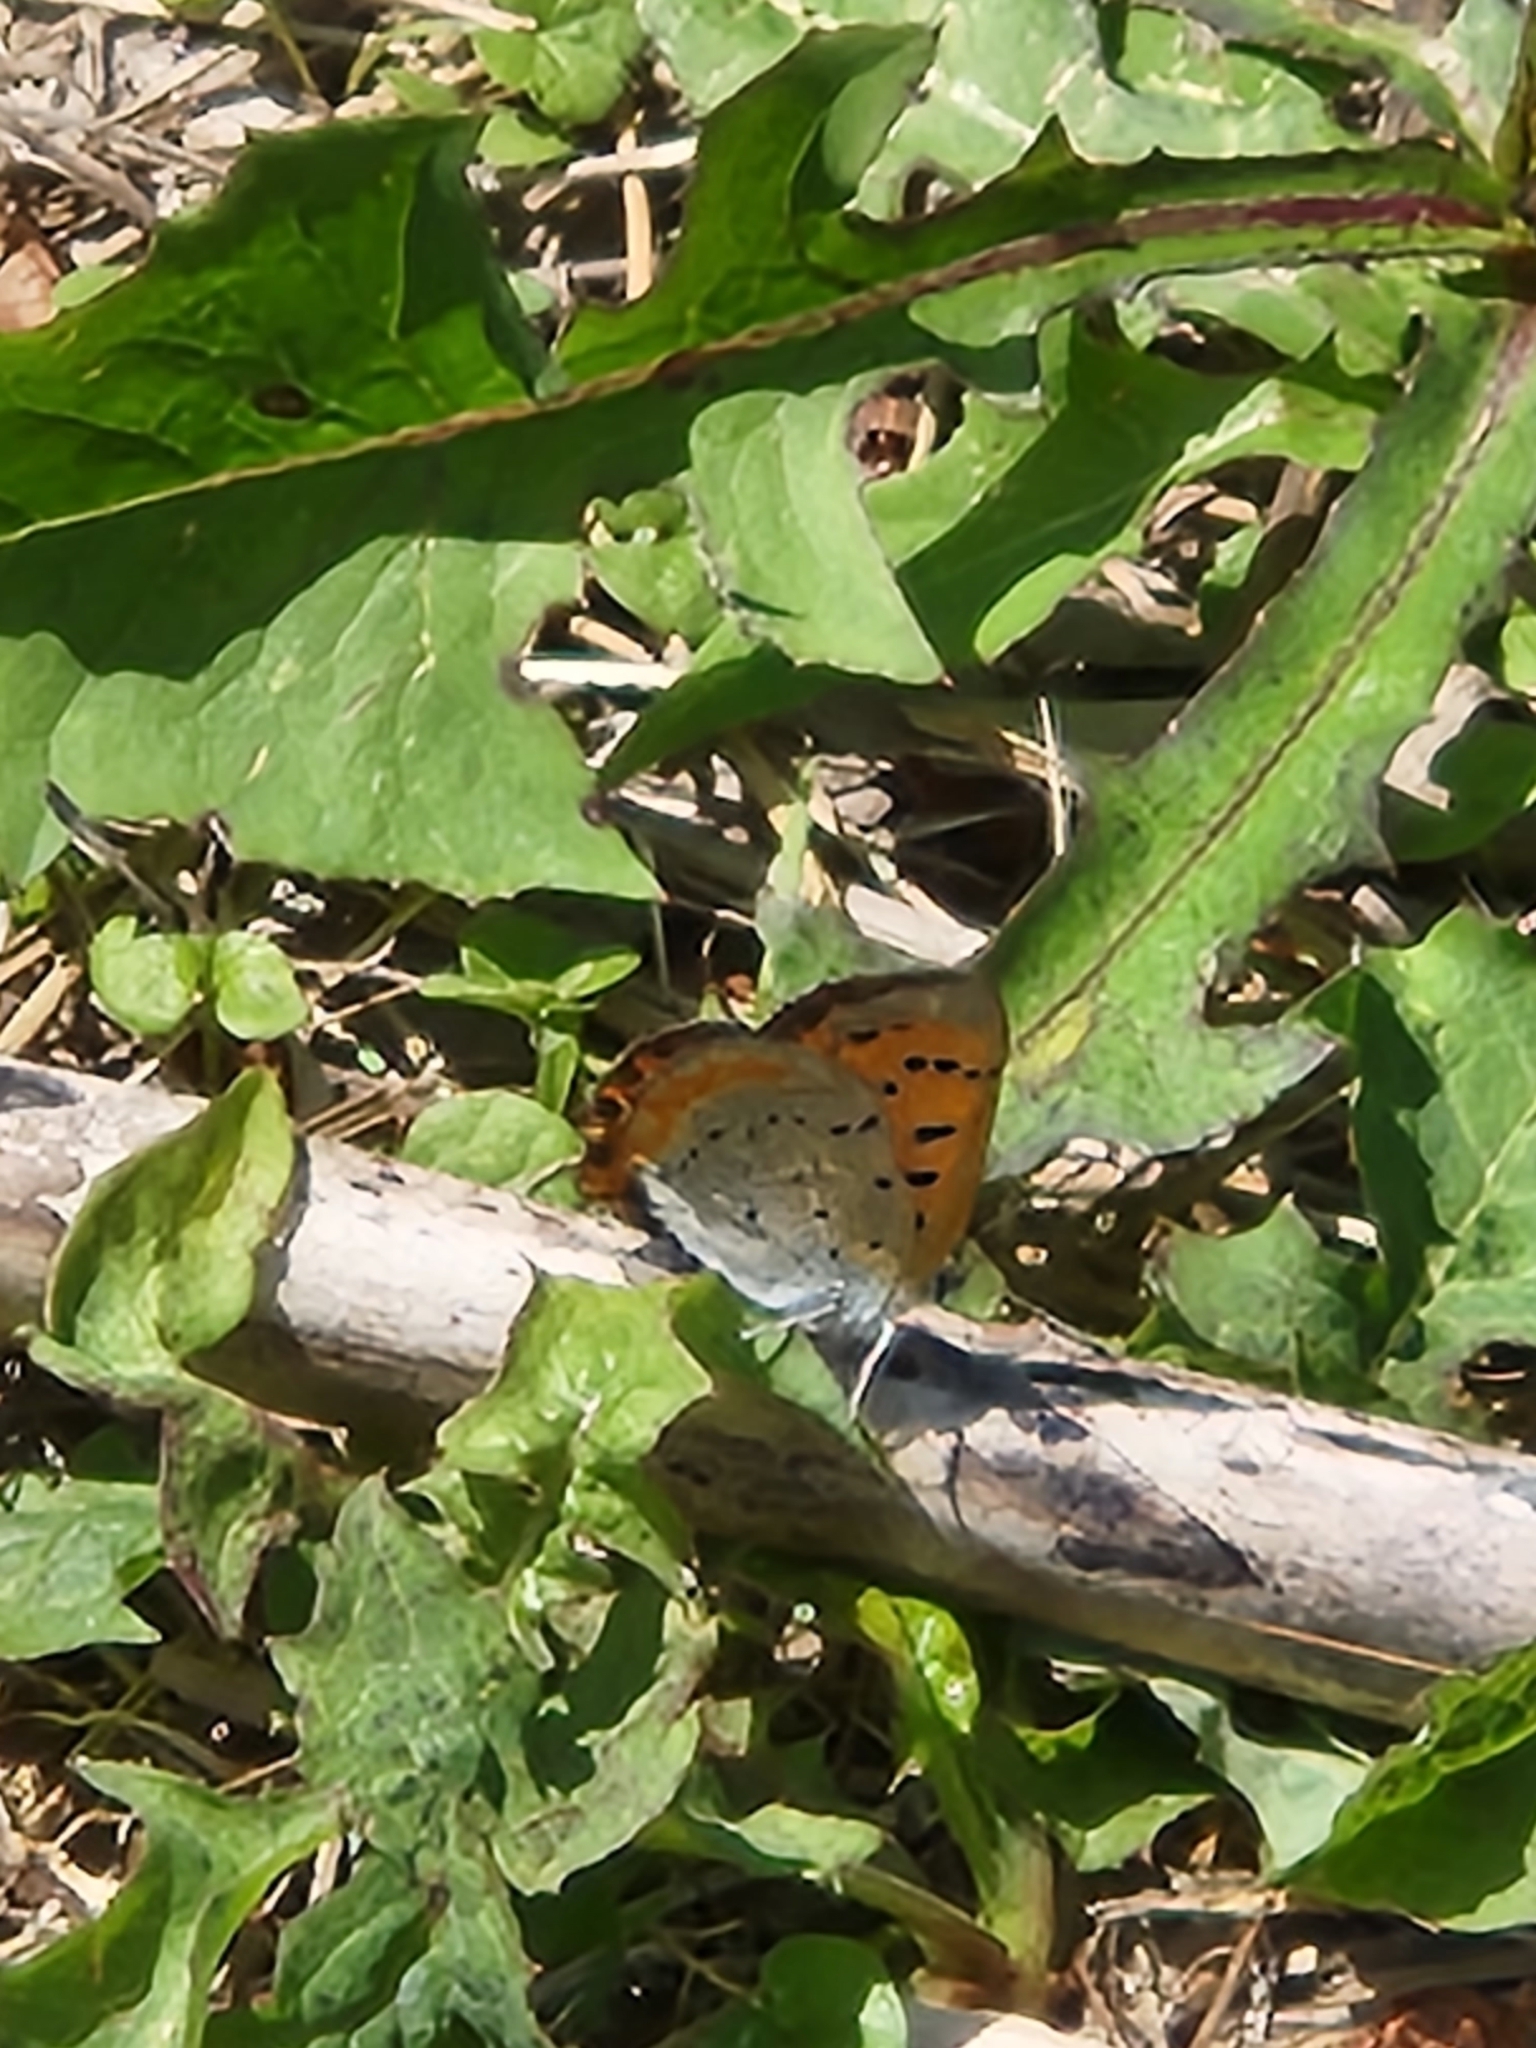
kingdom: Animalia
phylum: Arthropoda
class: Insecta
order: Lepidoptera
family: Lycaenidae
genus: Lycaena
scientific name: Lycaena phlaeas
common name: Small copper
